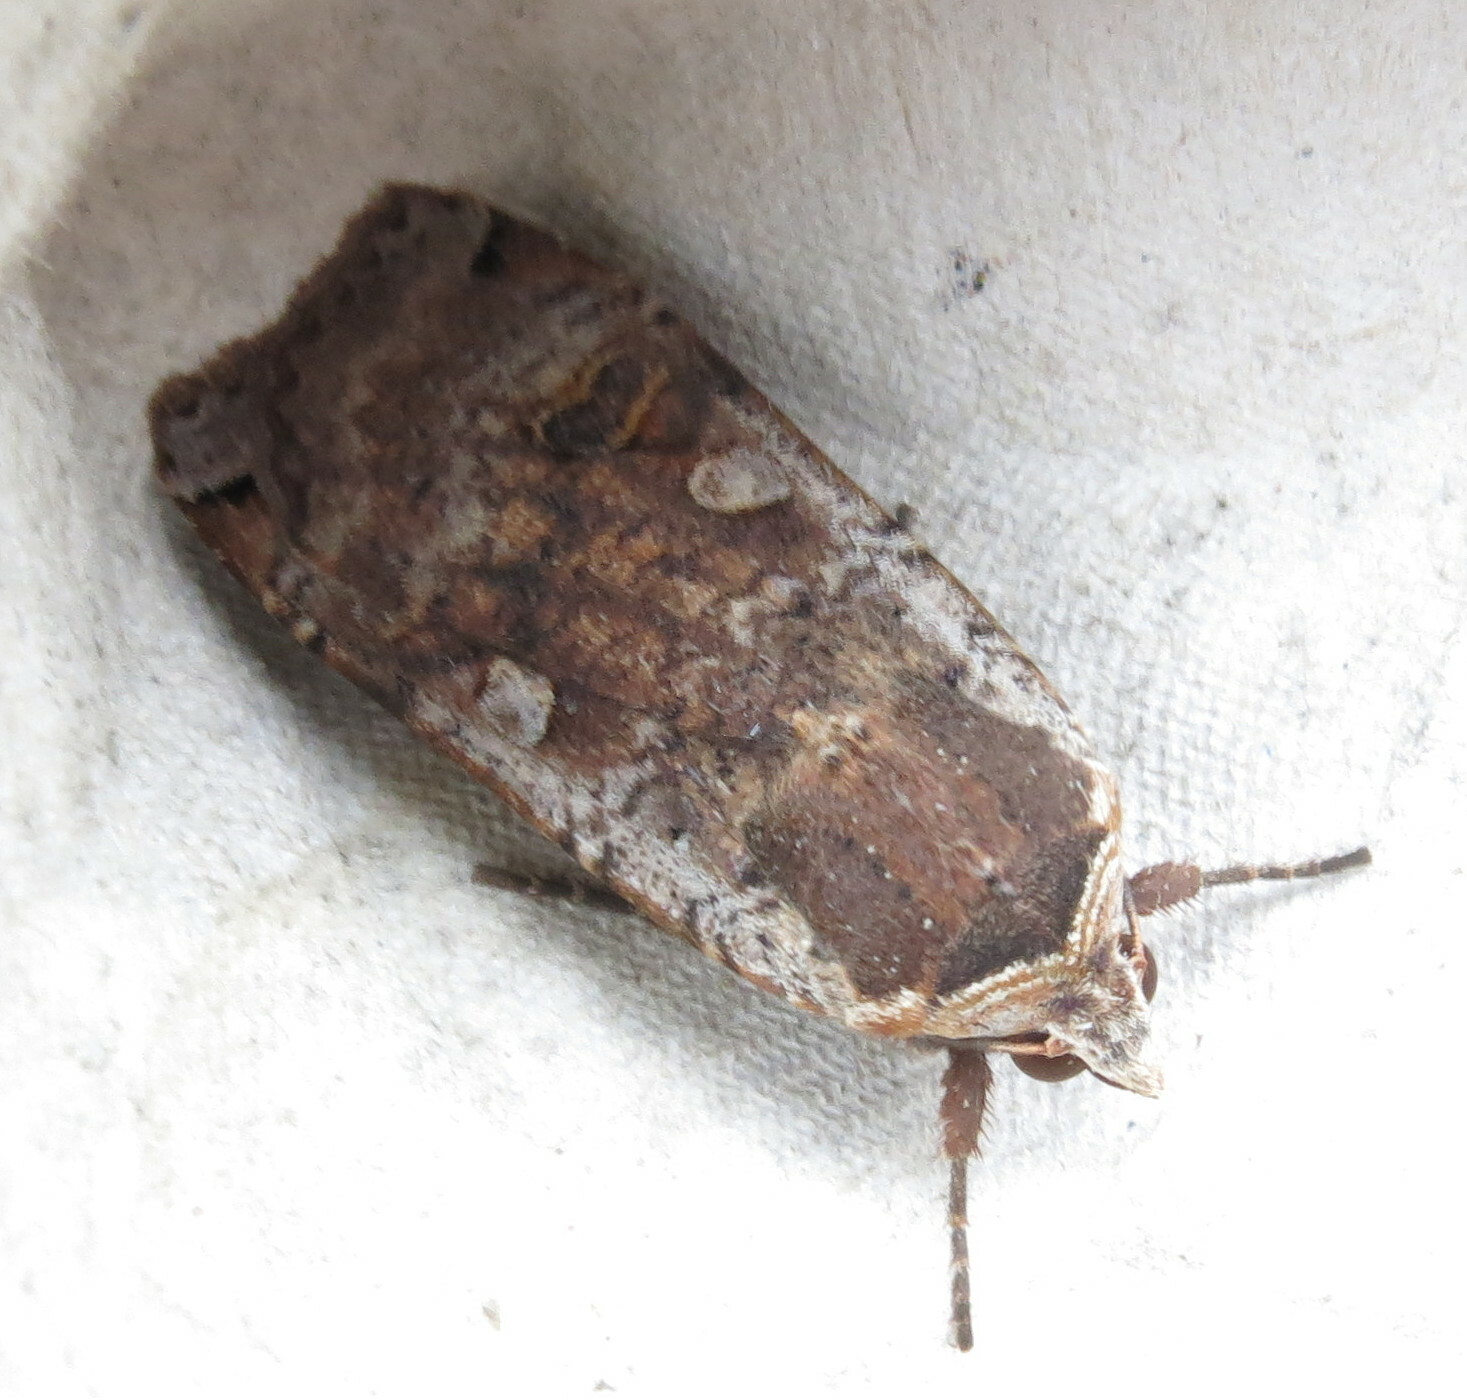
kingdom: Animalia
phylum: Arthropoda
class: Insecta
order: Lepidoptera
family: Noctuidae
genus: Noctua
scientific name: Noctua pronuba
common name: Large yellow underwing
